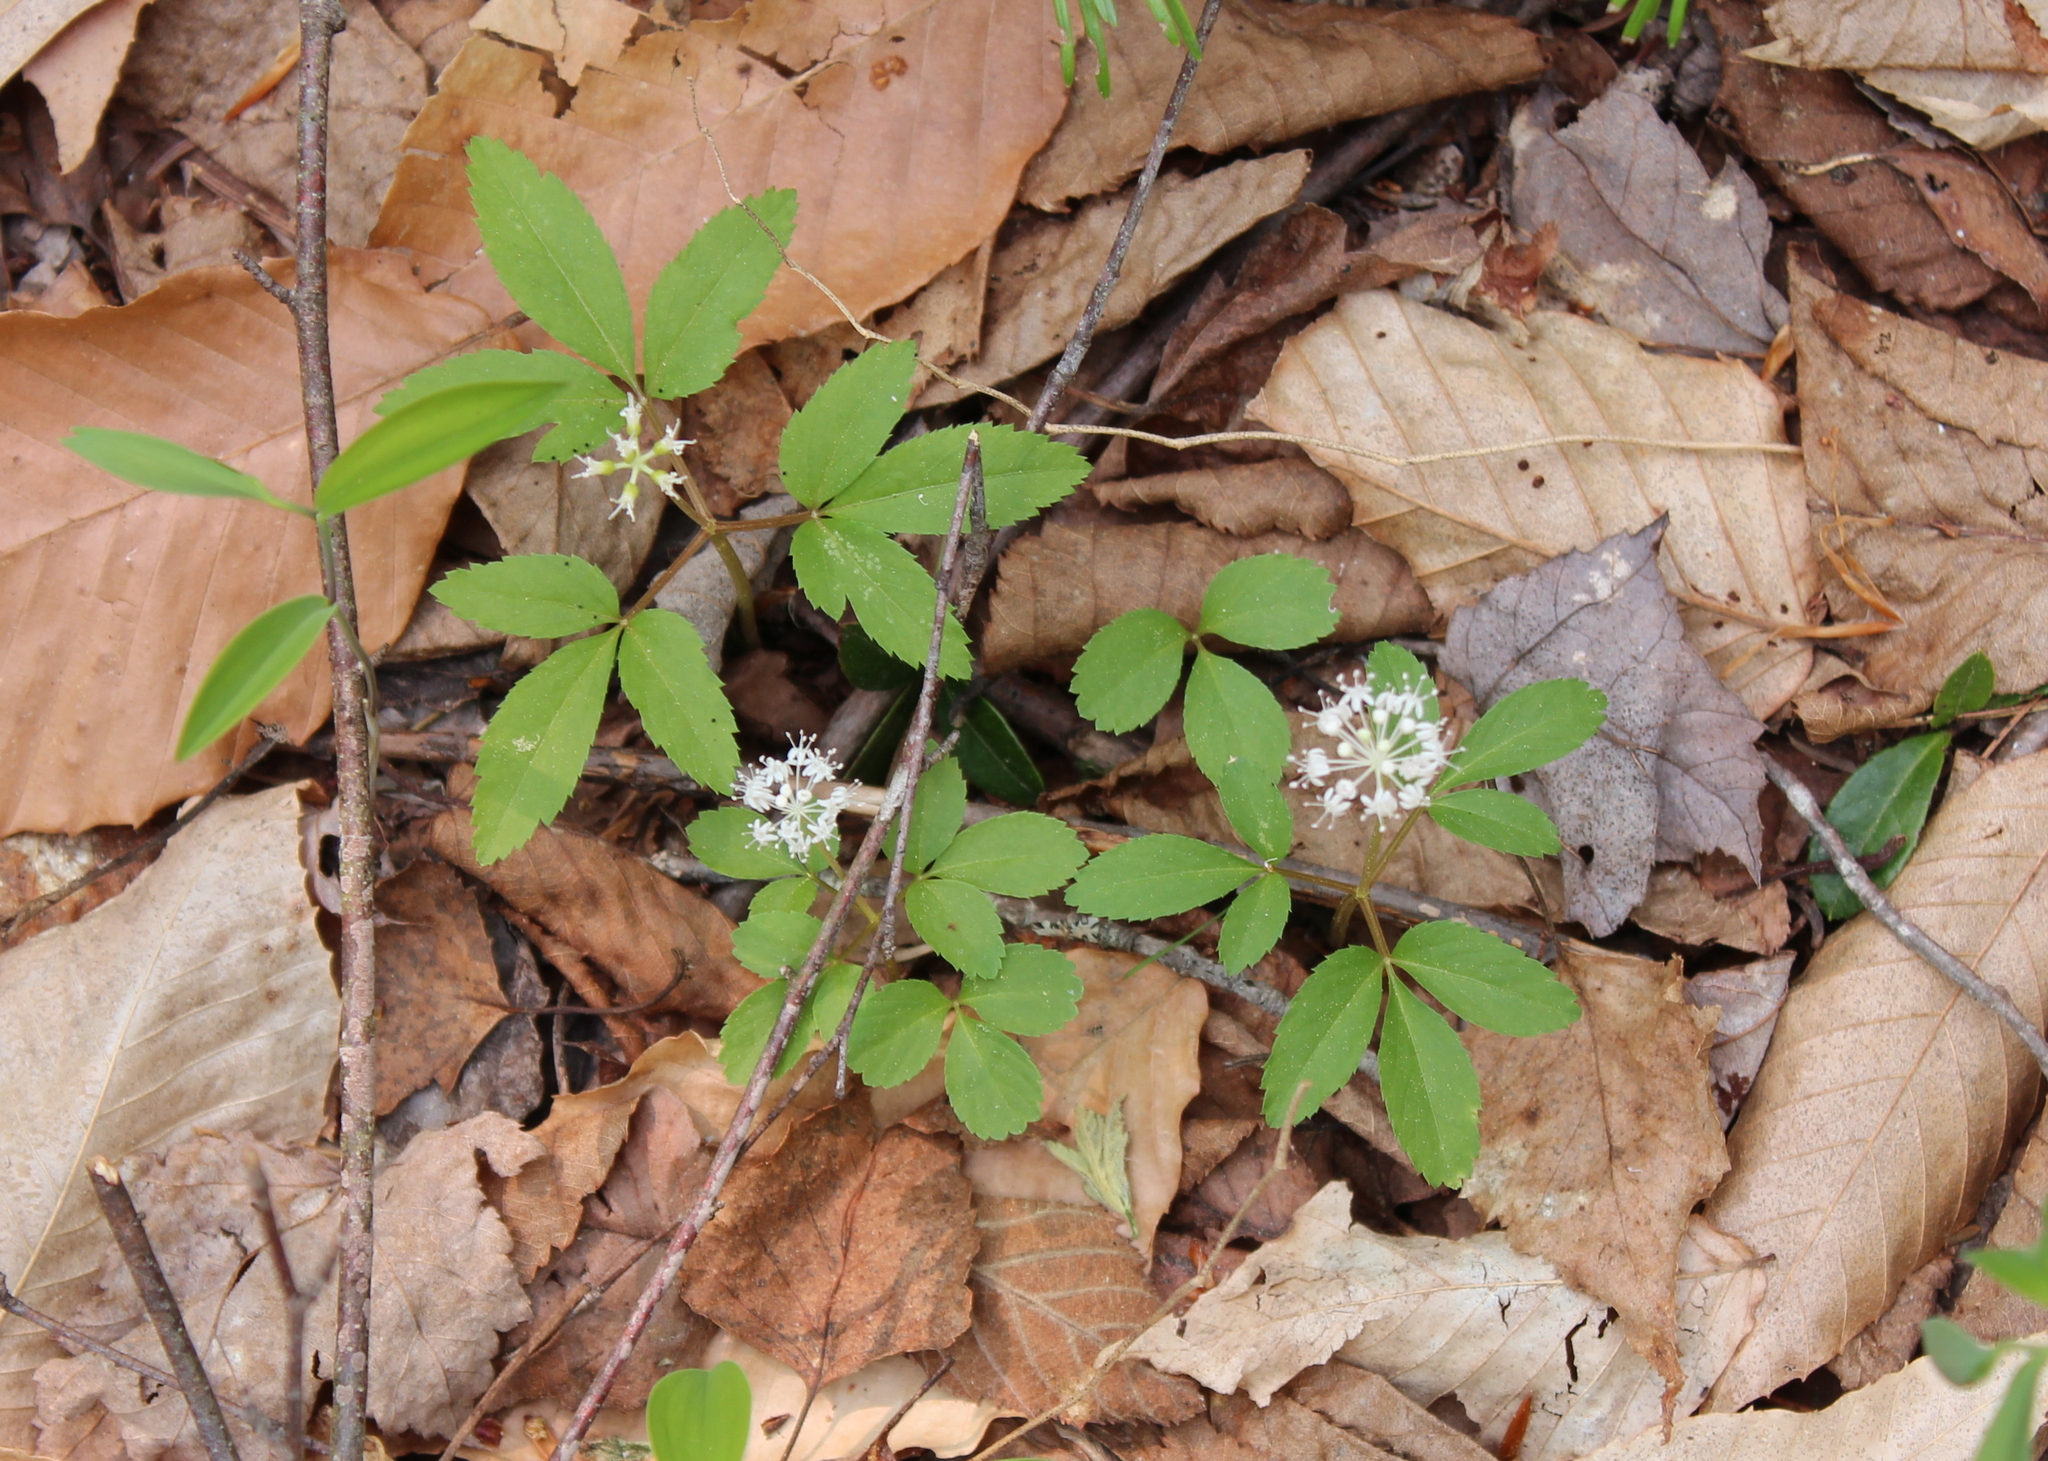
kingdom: Plantae
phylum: Tracheophyta
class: Magnoliopsida
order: Apiales
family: Araliaceae
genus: Panax
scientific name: Panax trifolius
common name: Dwarf ginseng
